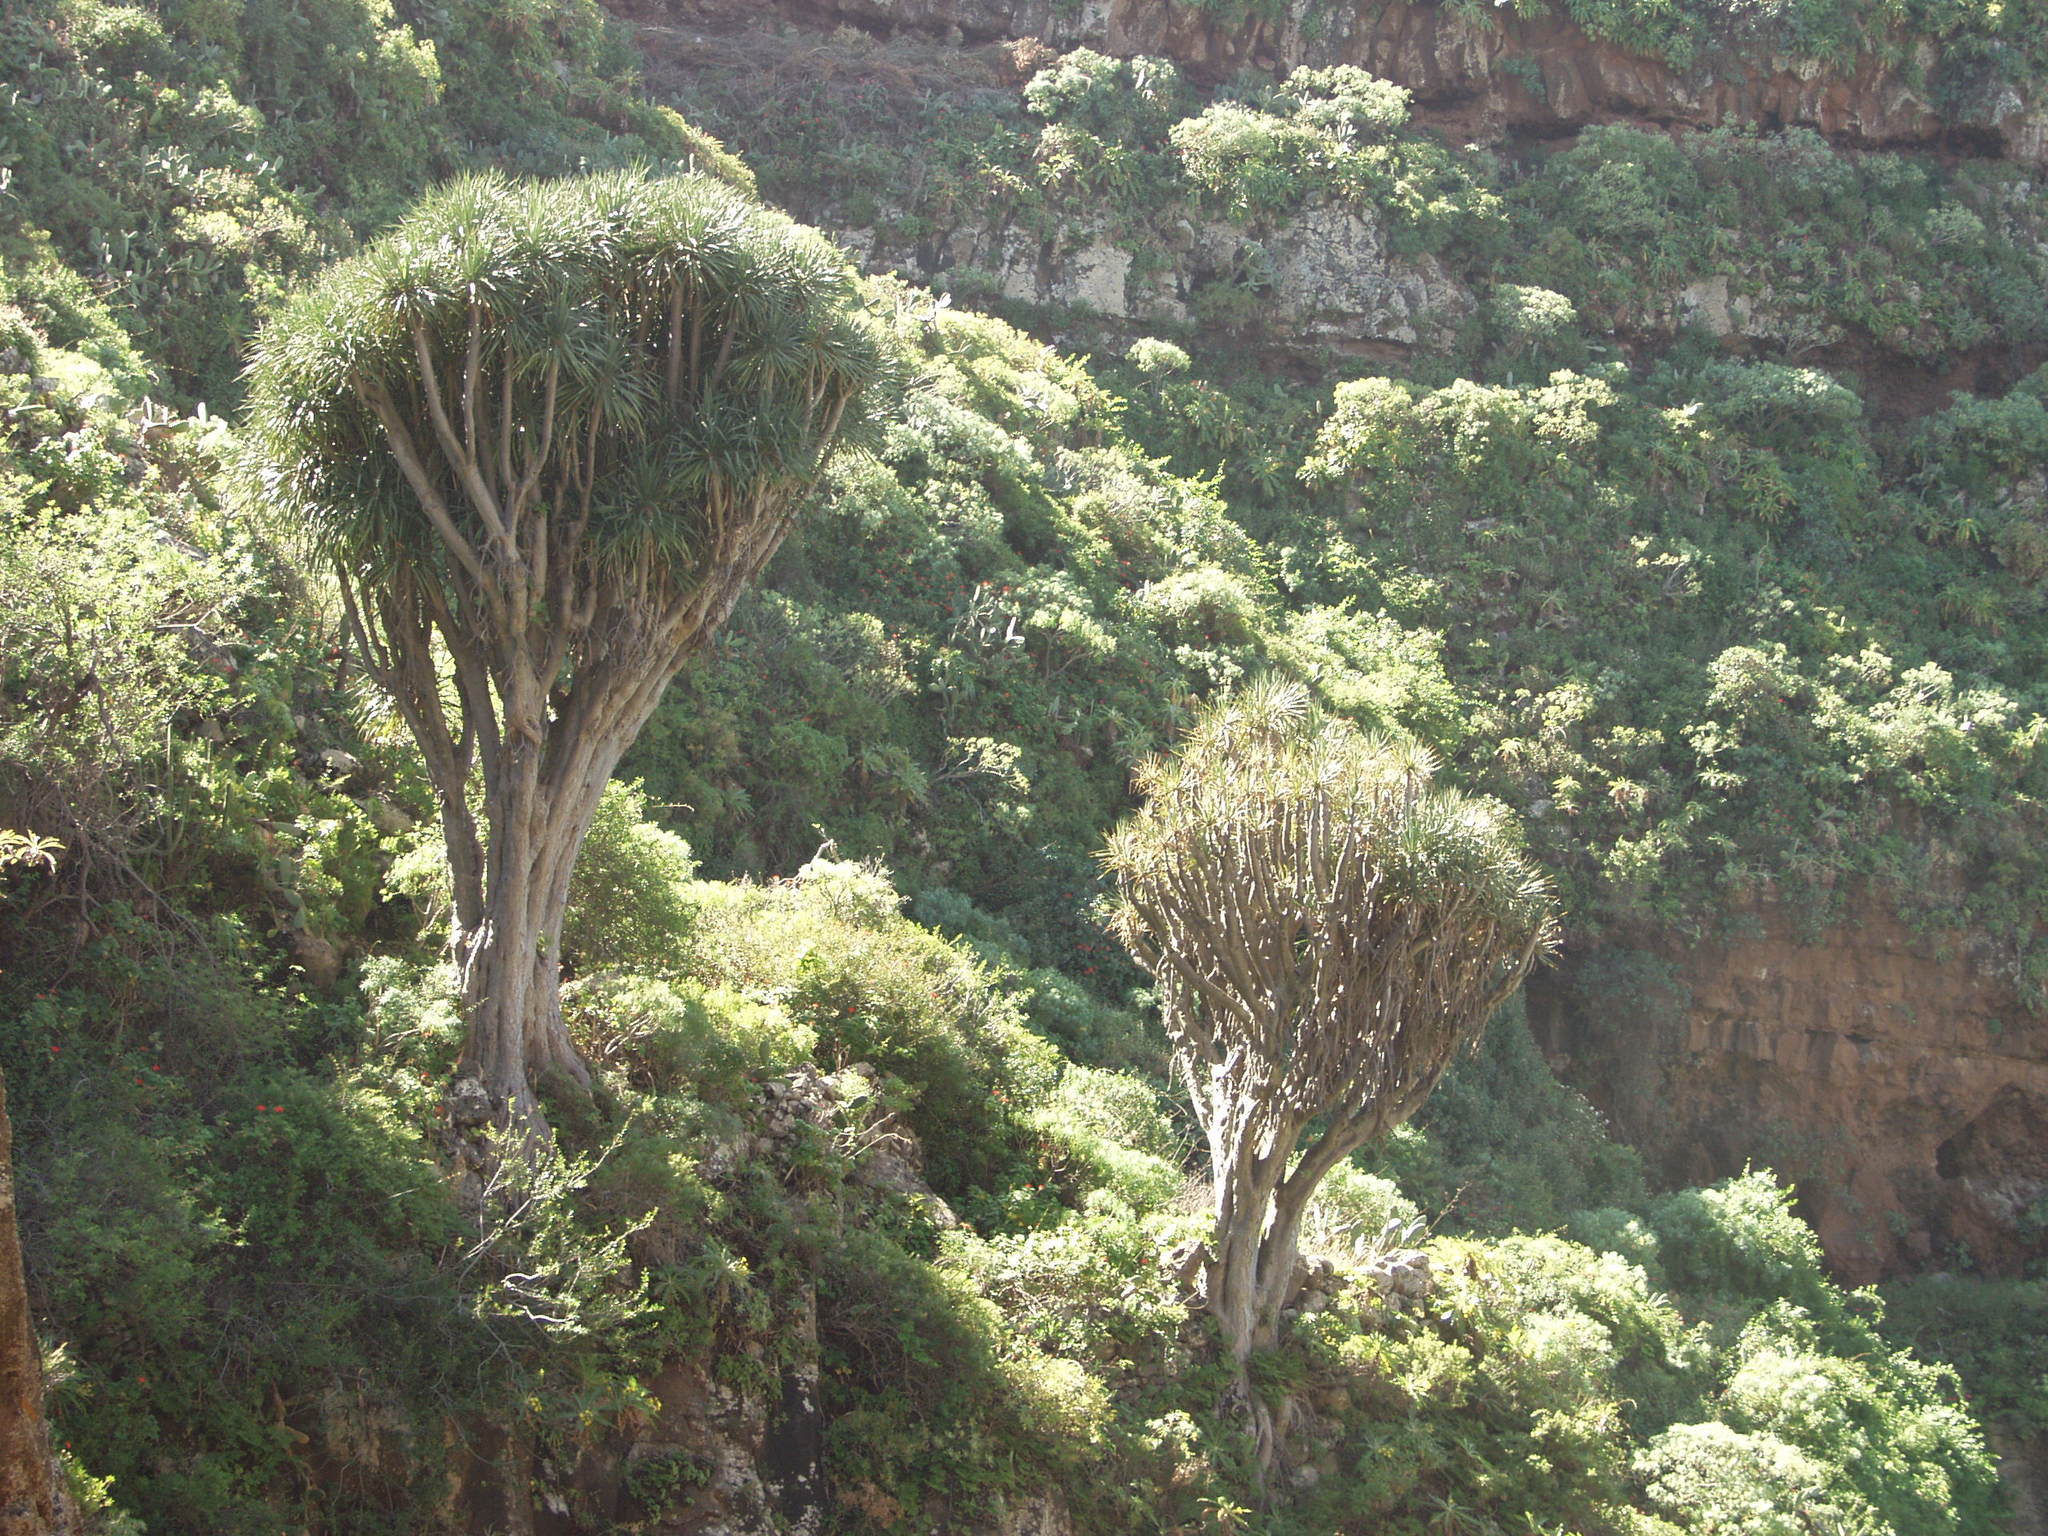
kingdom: Plantae
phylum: Tracheophyta
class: Liliopsida
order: Asparagales
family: Asparagaceae
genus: Dracaena
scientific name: Dracaena draco
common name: Canary island dragon tree
